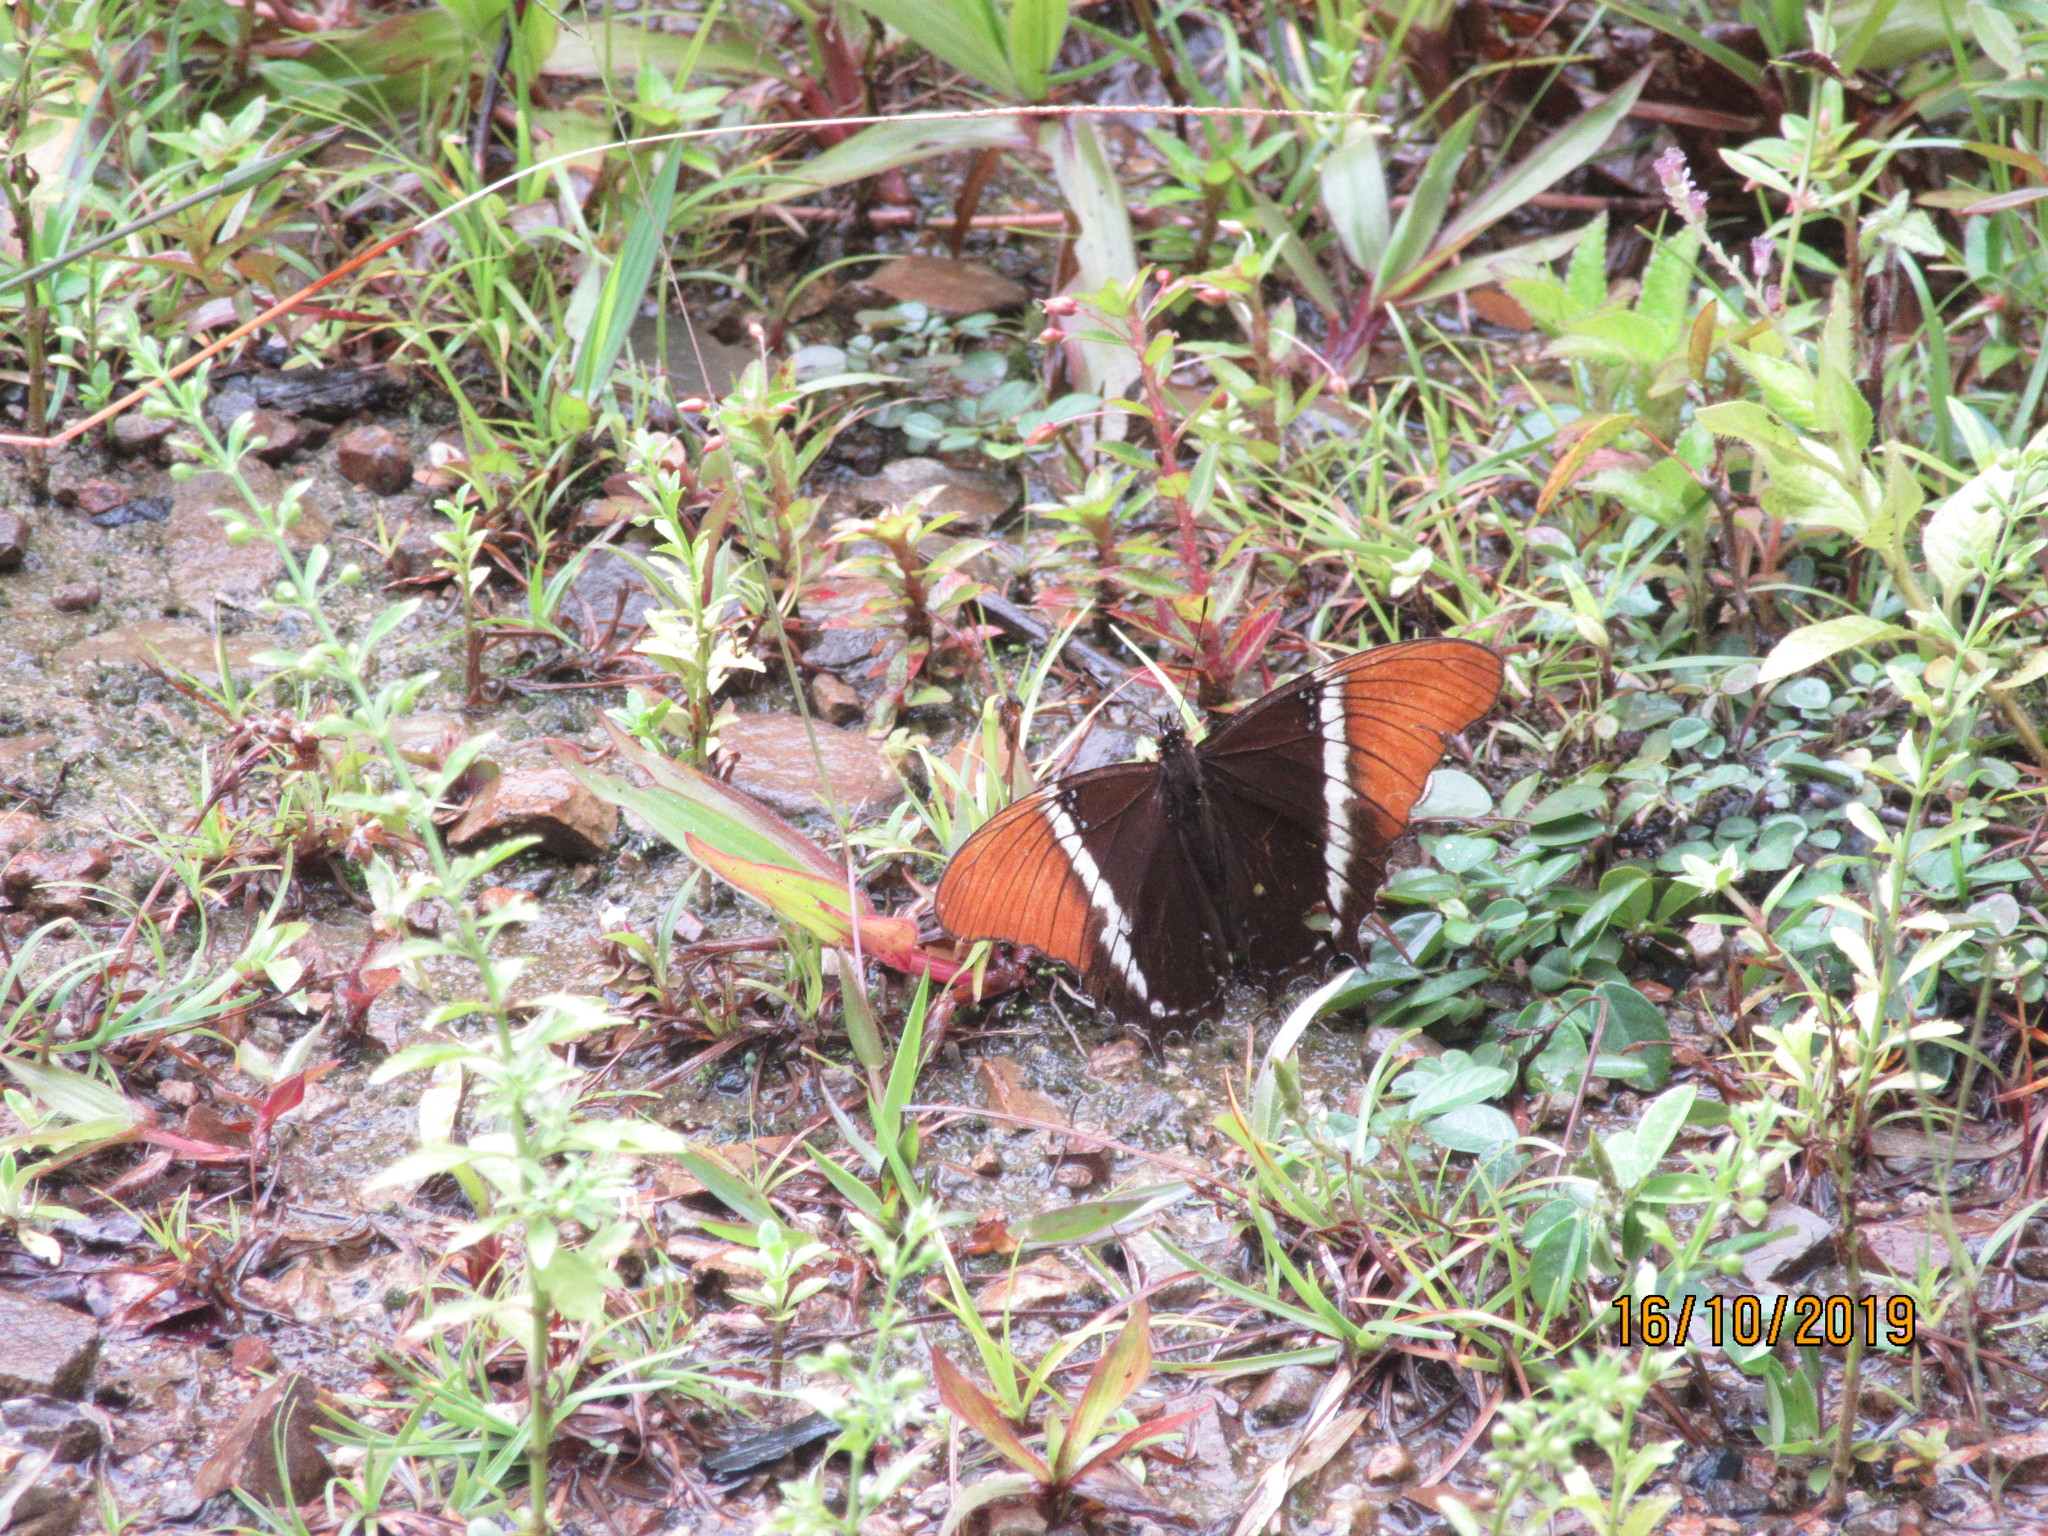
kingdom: Animalia
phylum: Arthropoda
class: Insecta
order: Lepidoptera
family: Nymphalidae
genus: Siproeta
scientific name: Siproeta epaphus
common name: Rusty-tipped page
